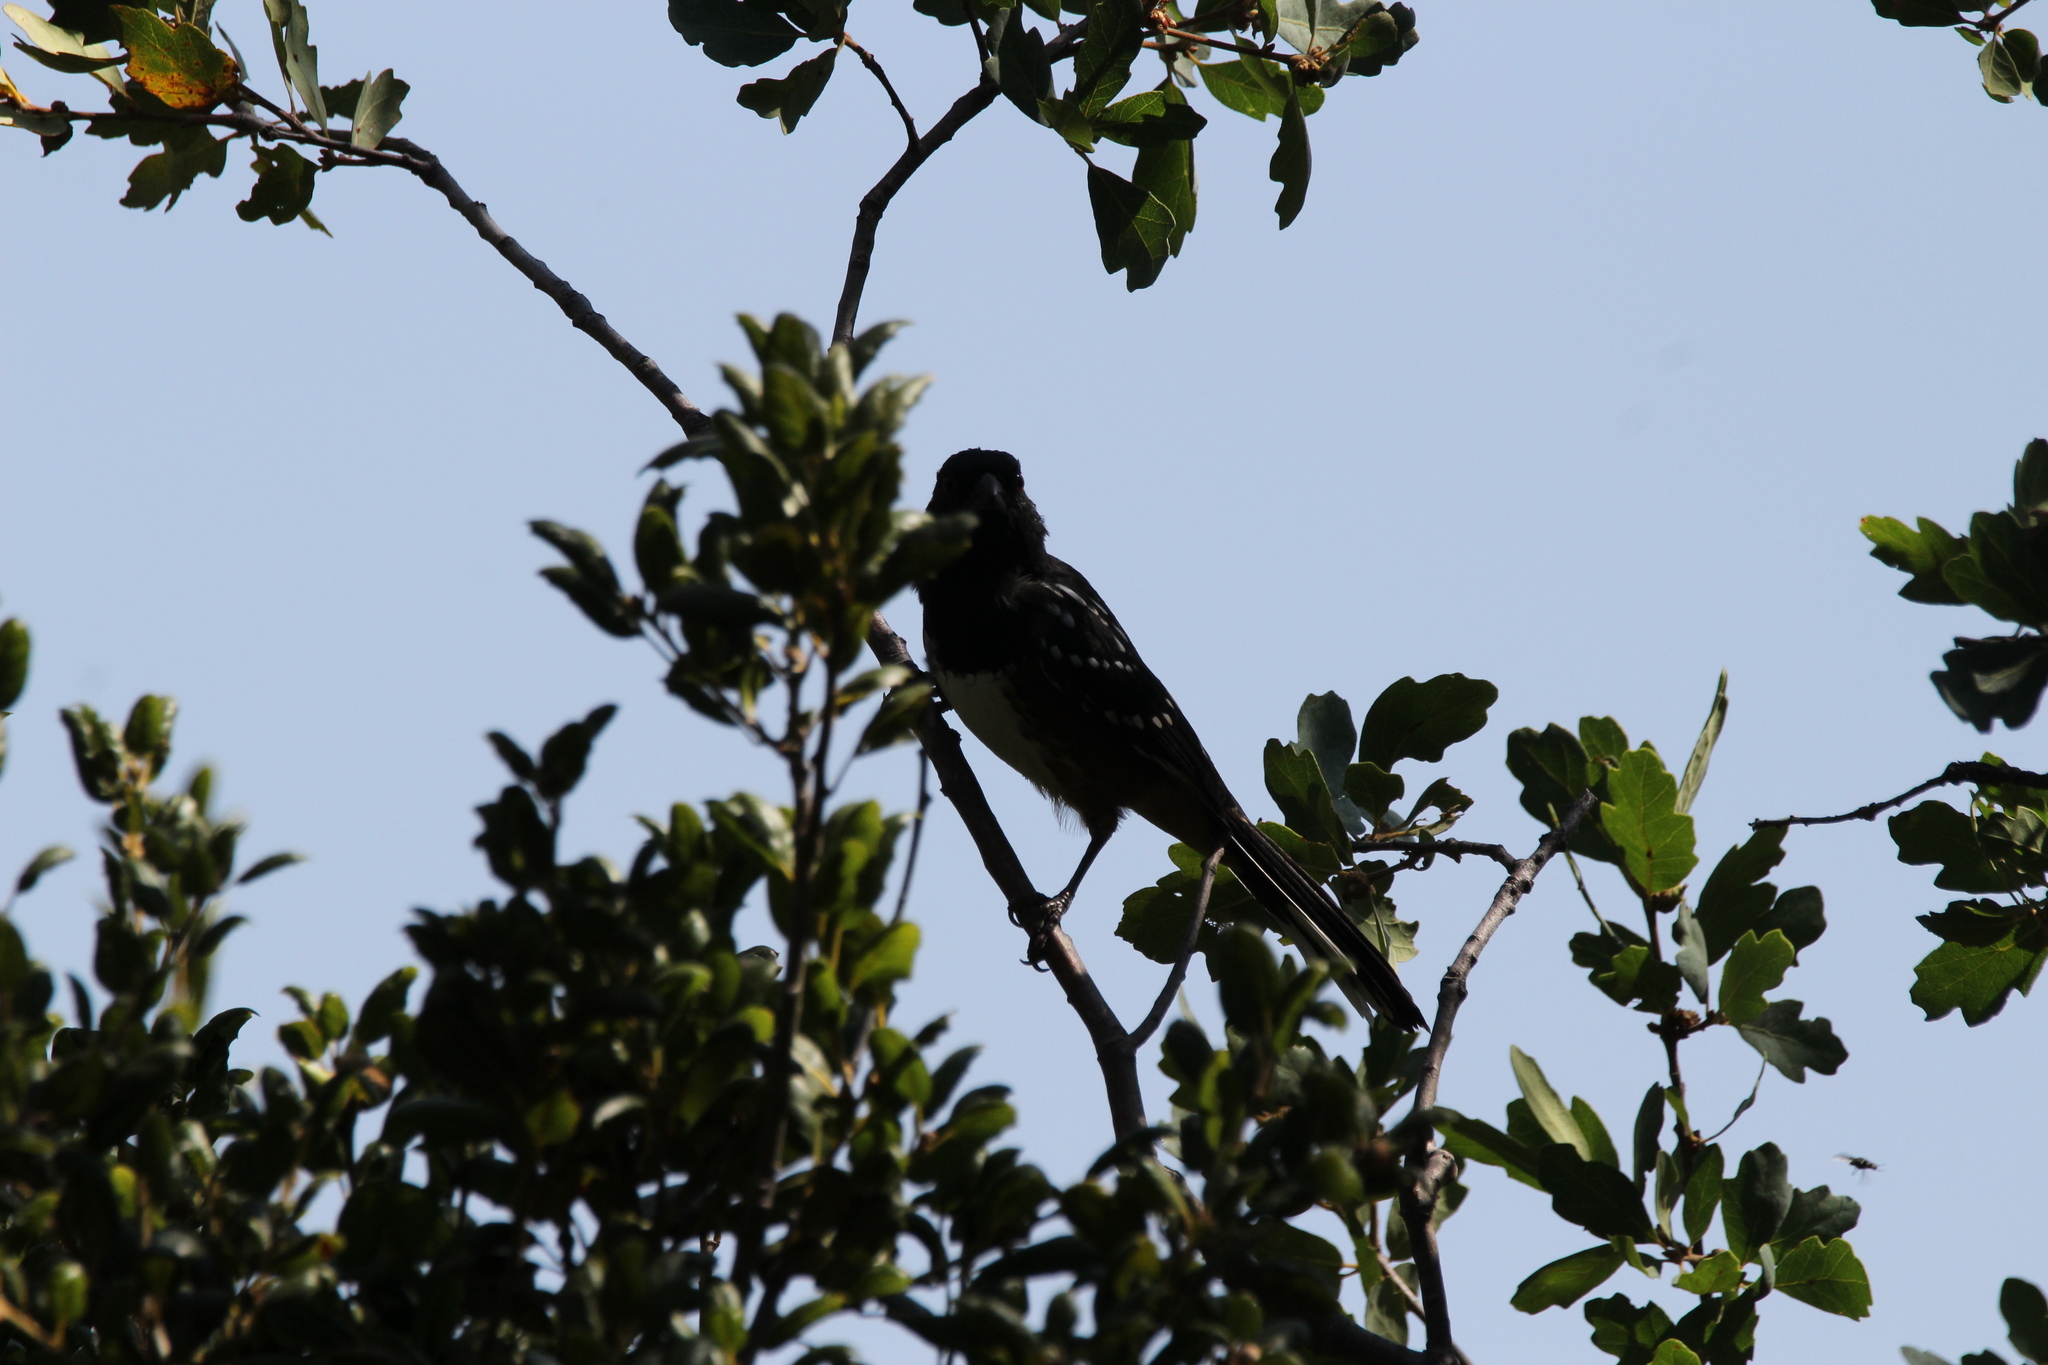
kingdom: Animalia
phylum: Chordata
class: Aves
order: Passeriformes
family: Passerellidae
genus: Pipilo
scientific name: Pipilo maculatus
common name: Spotted towhee
